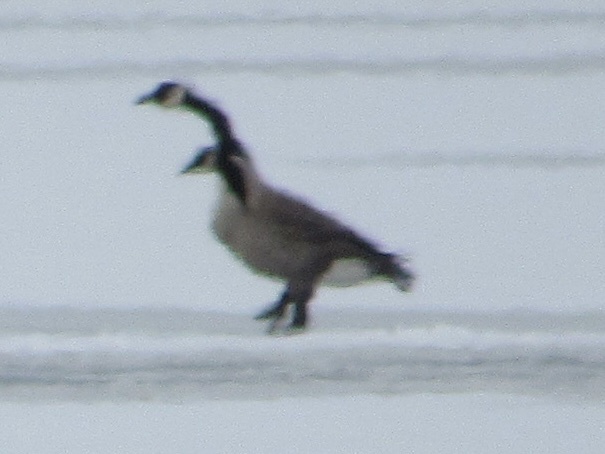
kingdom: Animalia
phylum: Chordata
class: Aves
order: Anseriformes
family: Anatidae
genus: Branta
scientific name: Branta canadensis
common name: Canada goose
